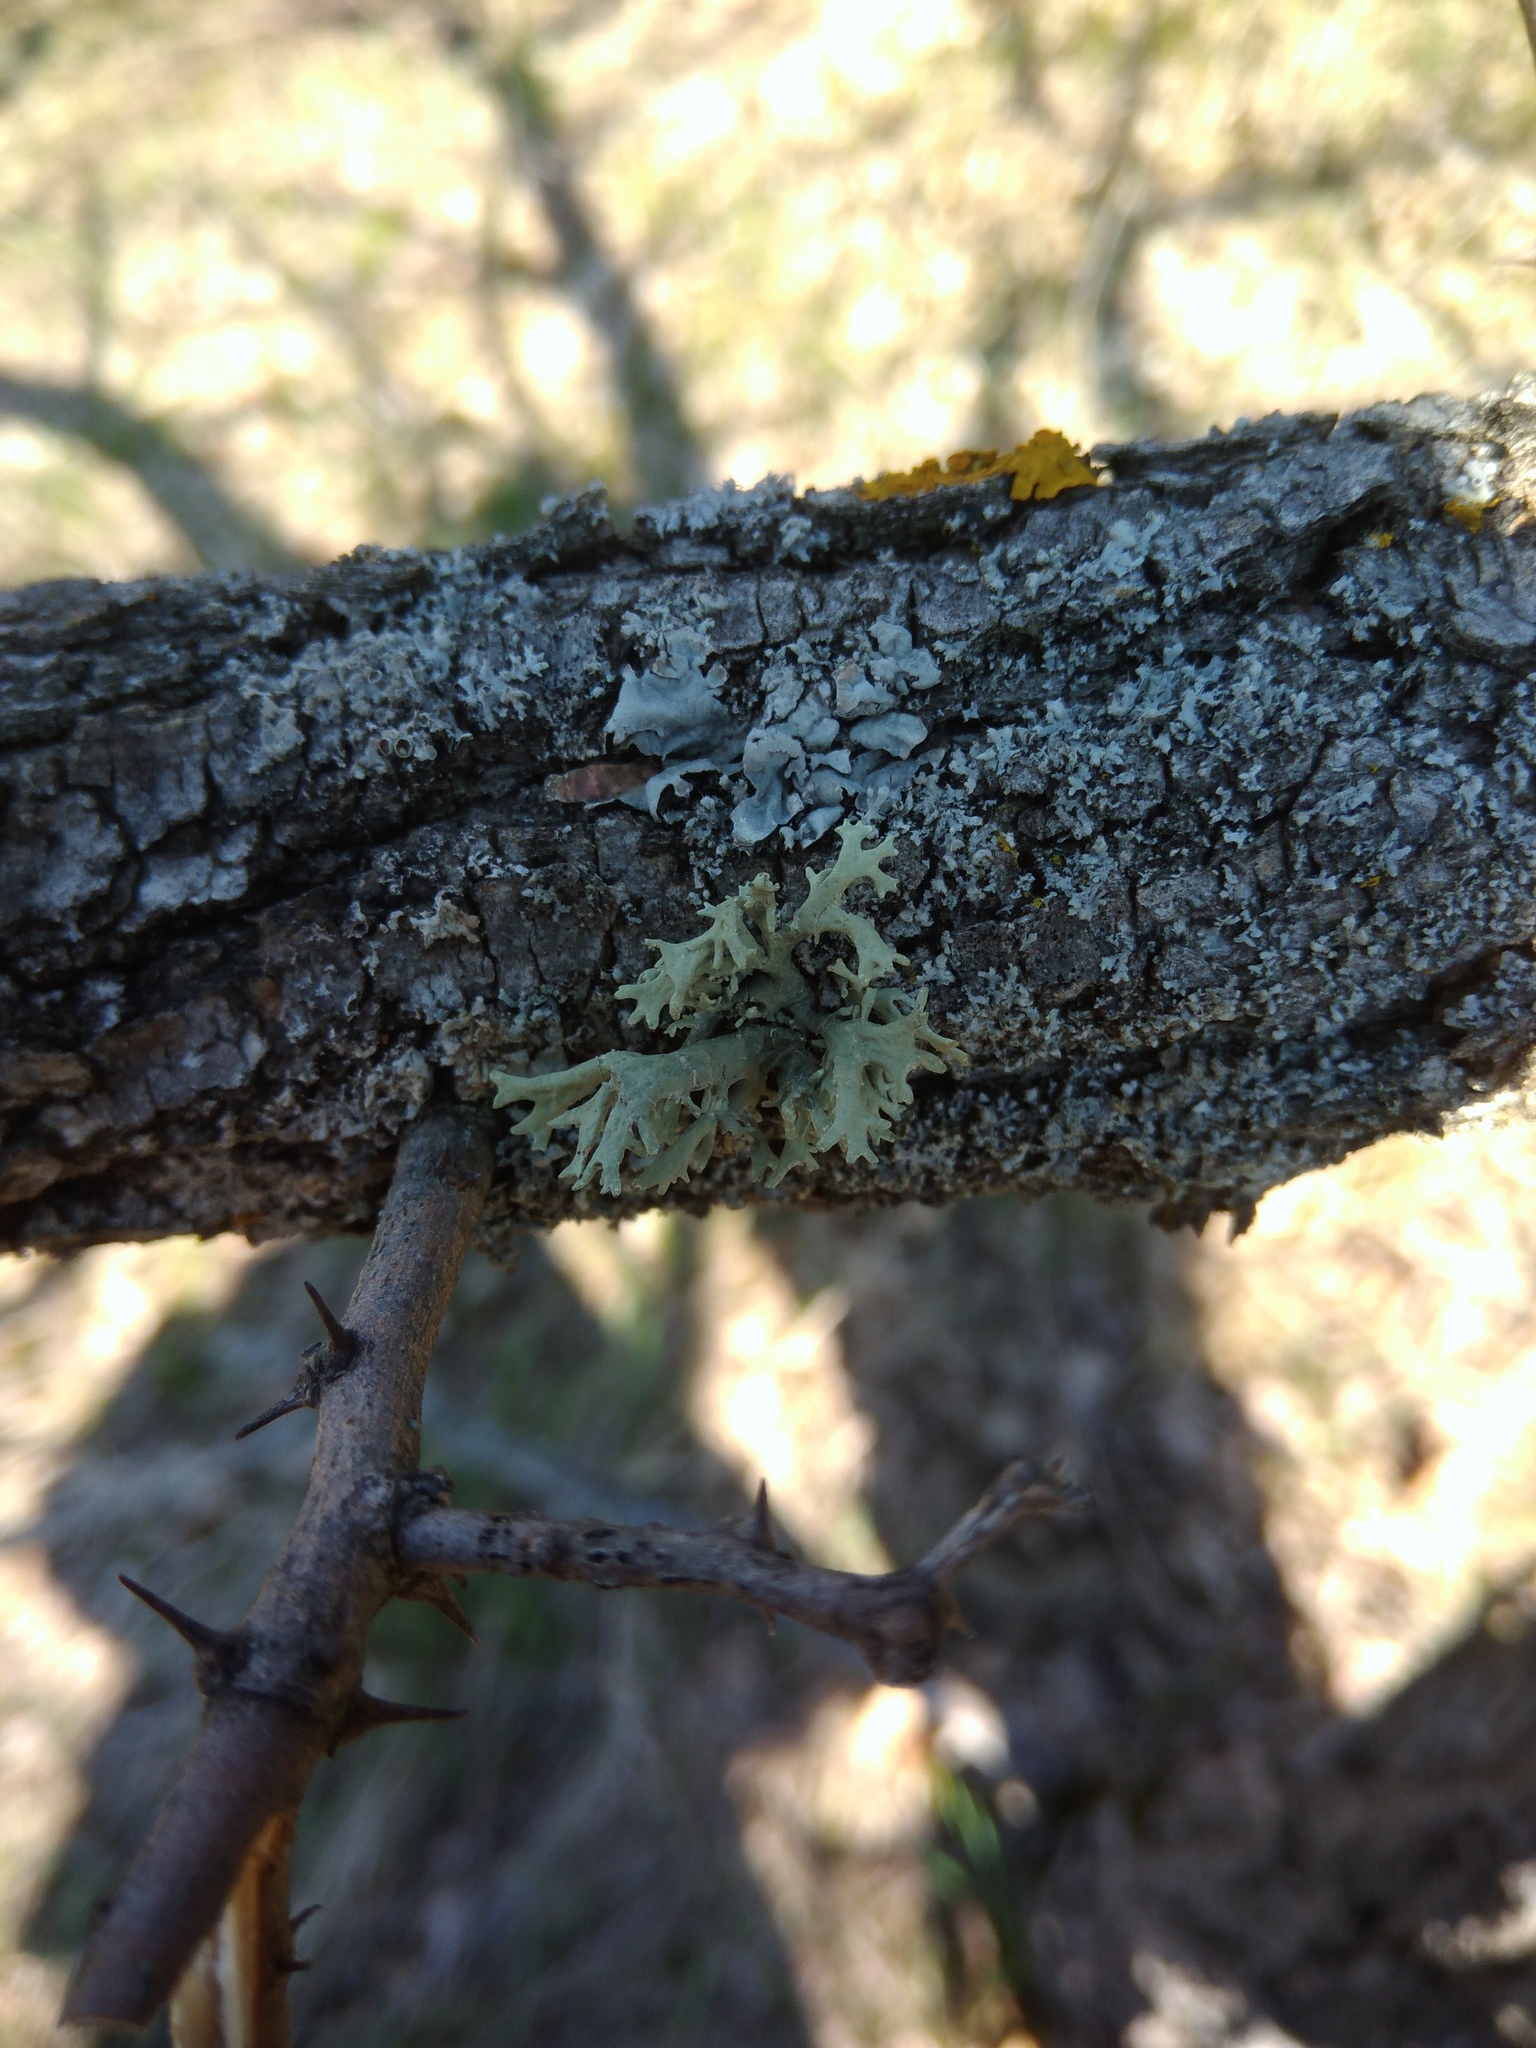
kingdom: Fungi
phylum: Ascomycota
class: Lecanoromycetes
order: Lecanorales
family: Parmeliaceae
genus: Evernia
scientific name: Evernia prunastri
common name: Oak moss
